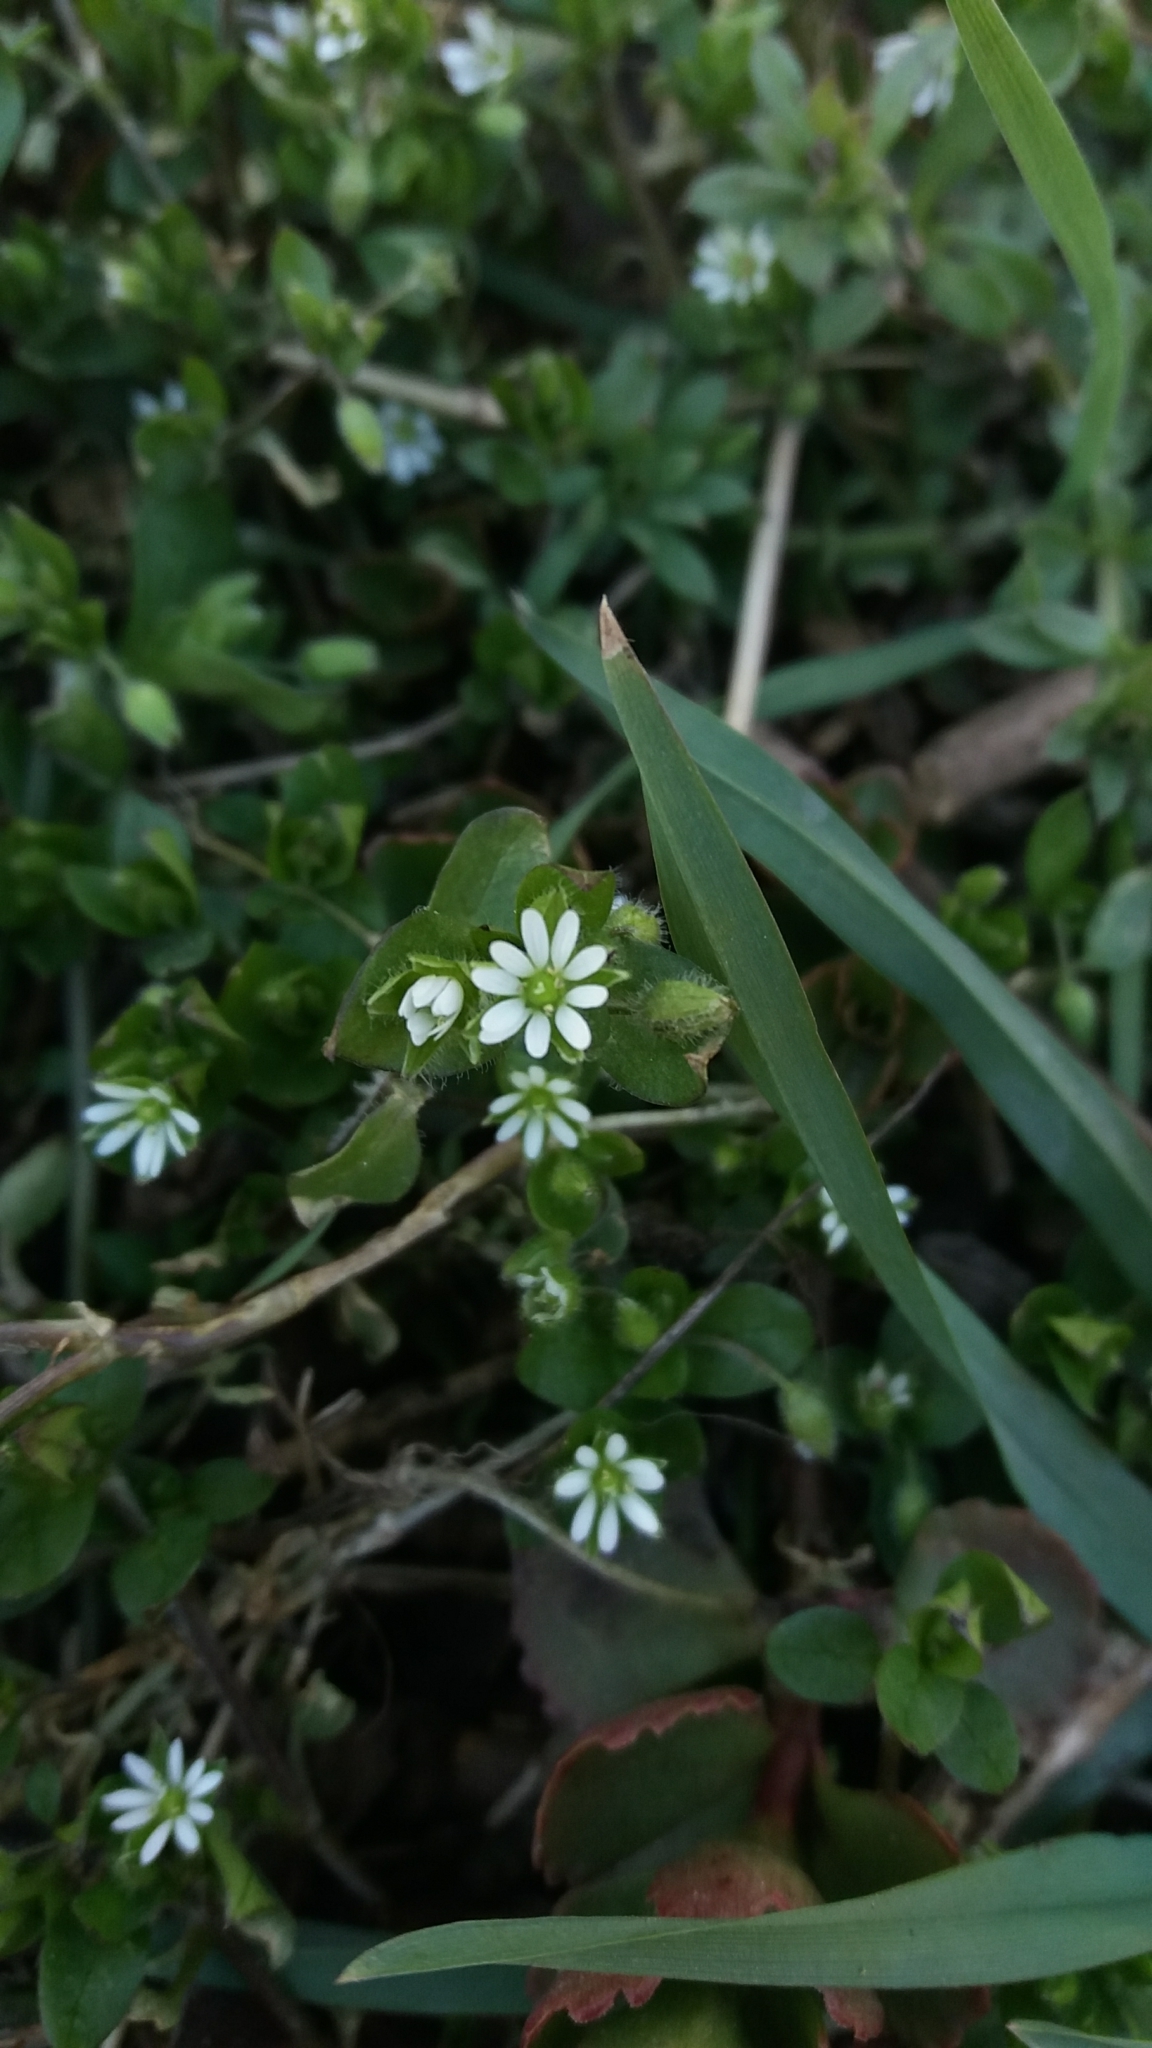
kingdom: Plantae
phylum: Tracheophyta
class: Magnoliopsida
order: Caryophyllales
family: Caryophyllaceae
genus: Stellaria
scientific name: Stellaria media
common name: Common chickweed
